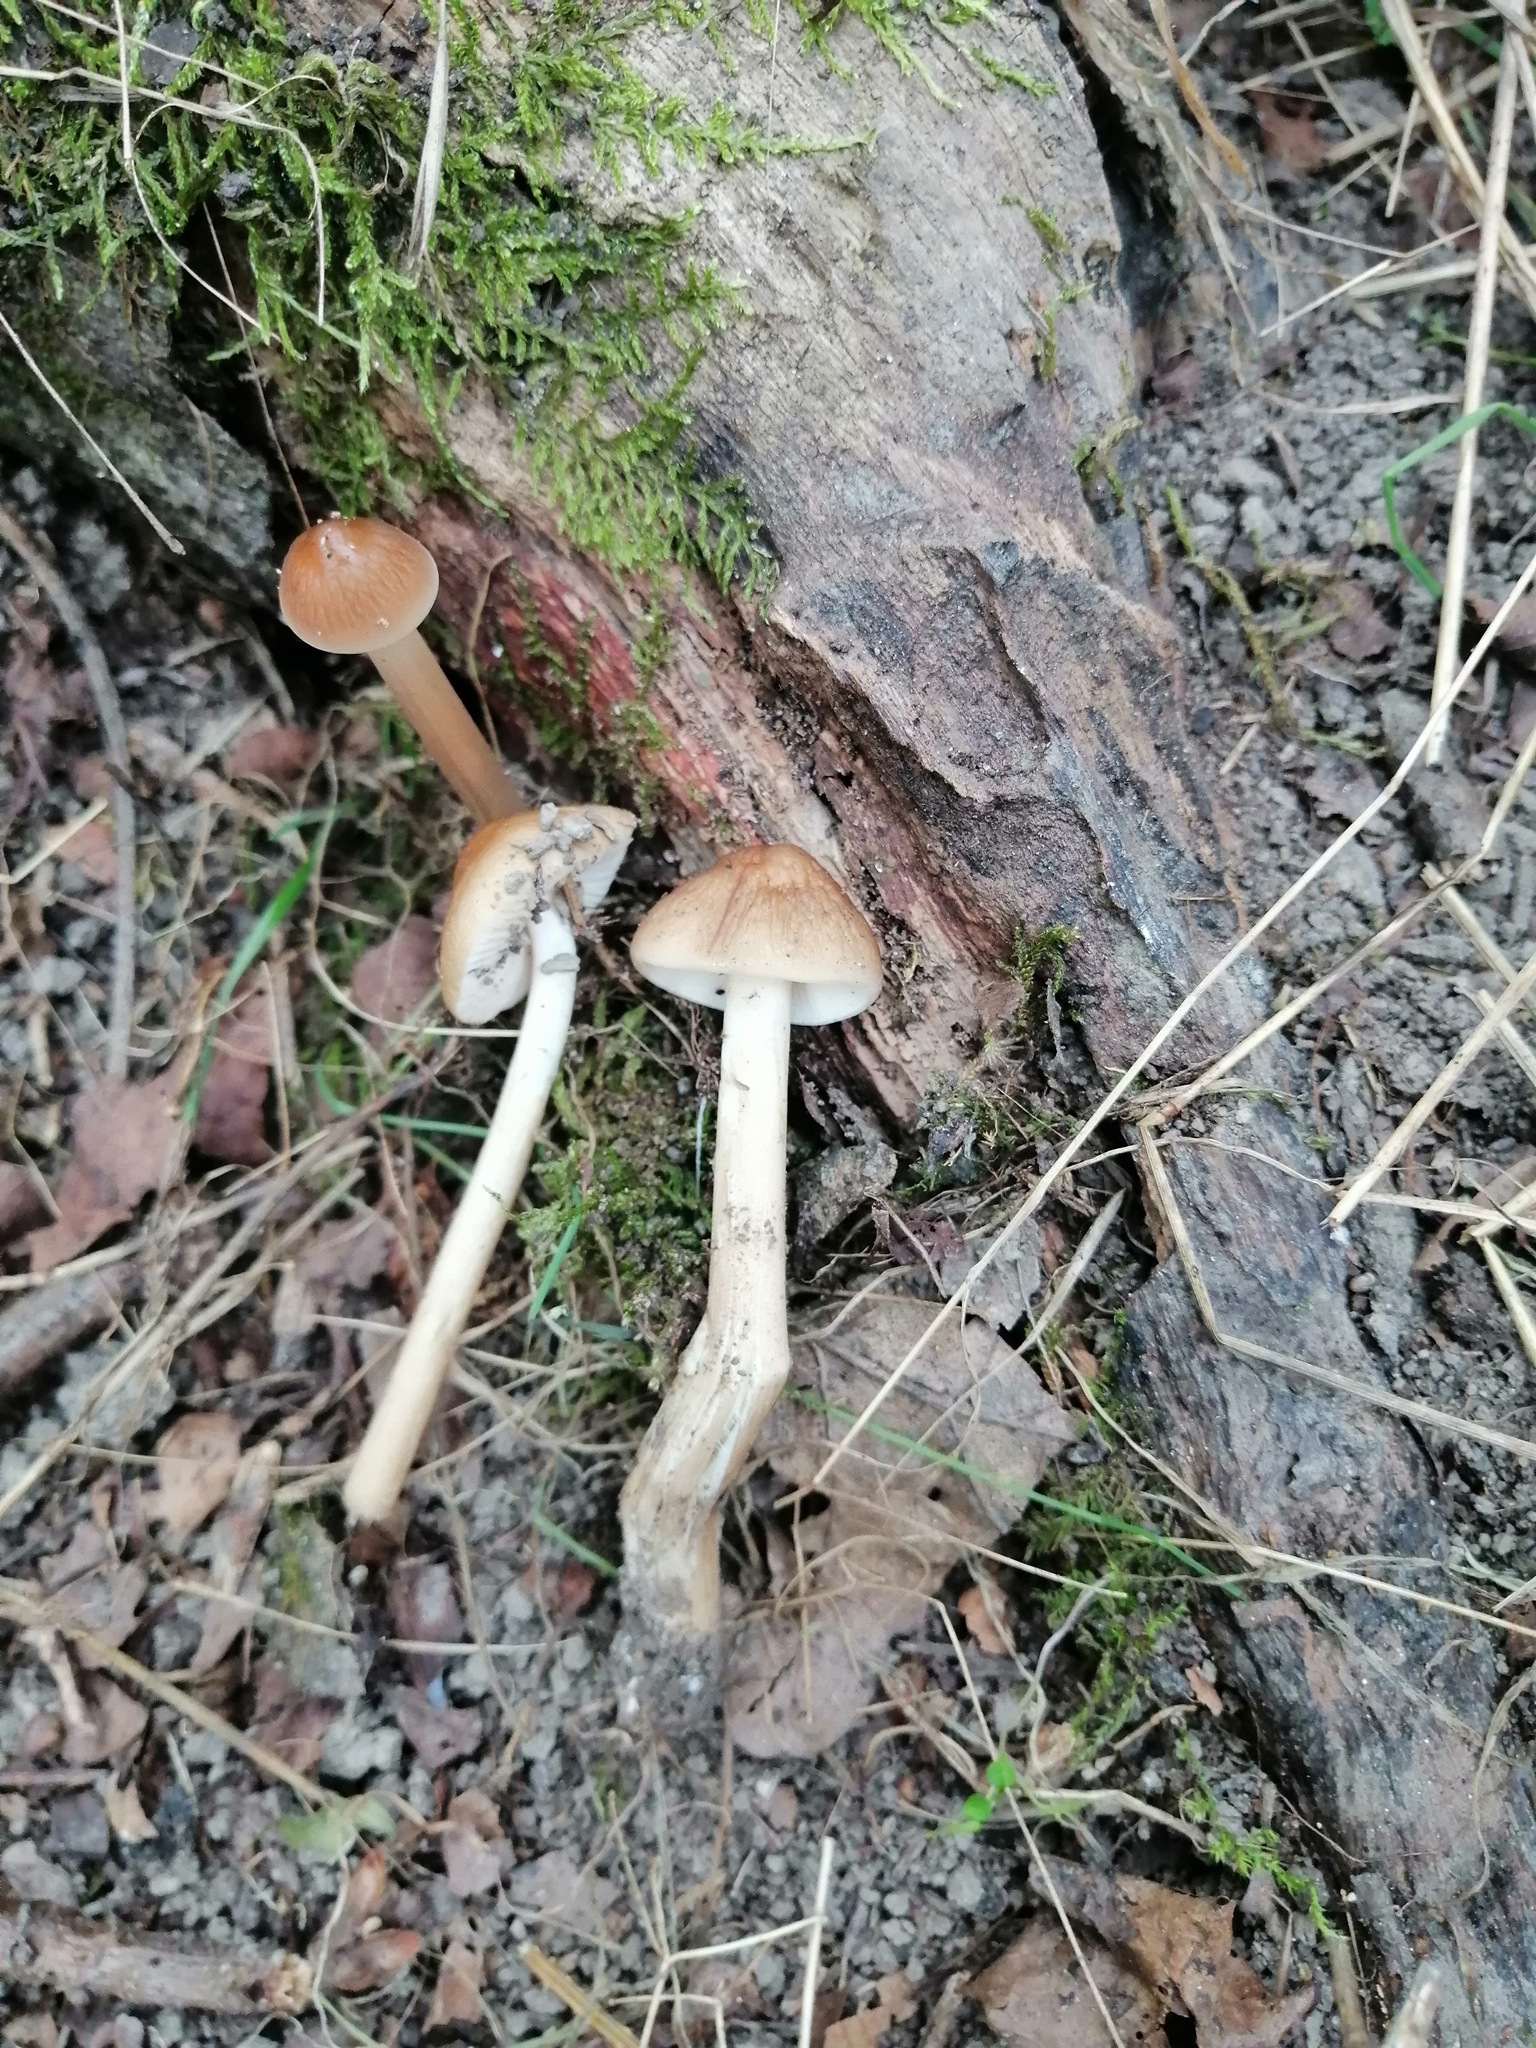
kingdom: Fungi
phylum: Basidiomycota
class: Agaricomycetes
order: Agaricales
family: Physalacriaceae
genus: Hymenopellis
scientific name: Hymenopellis radicata
